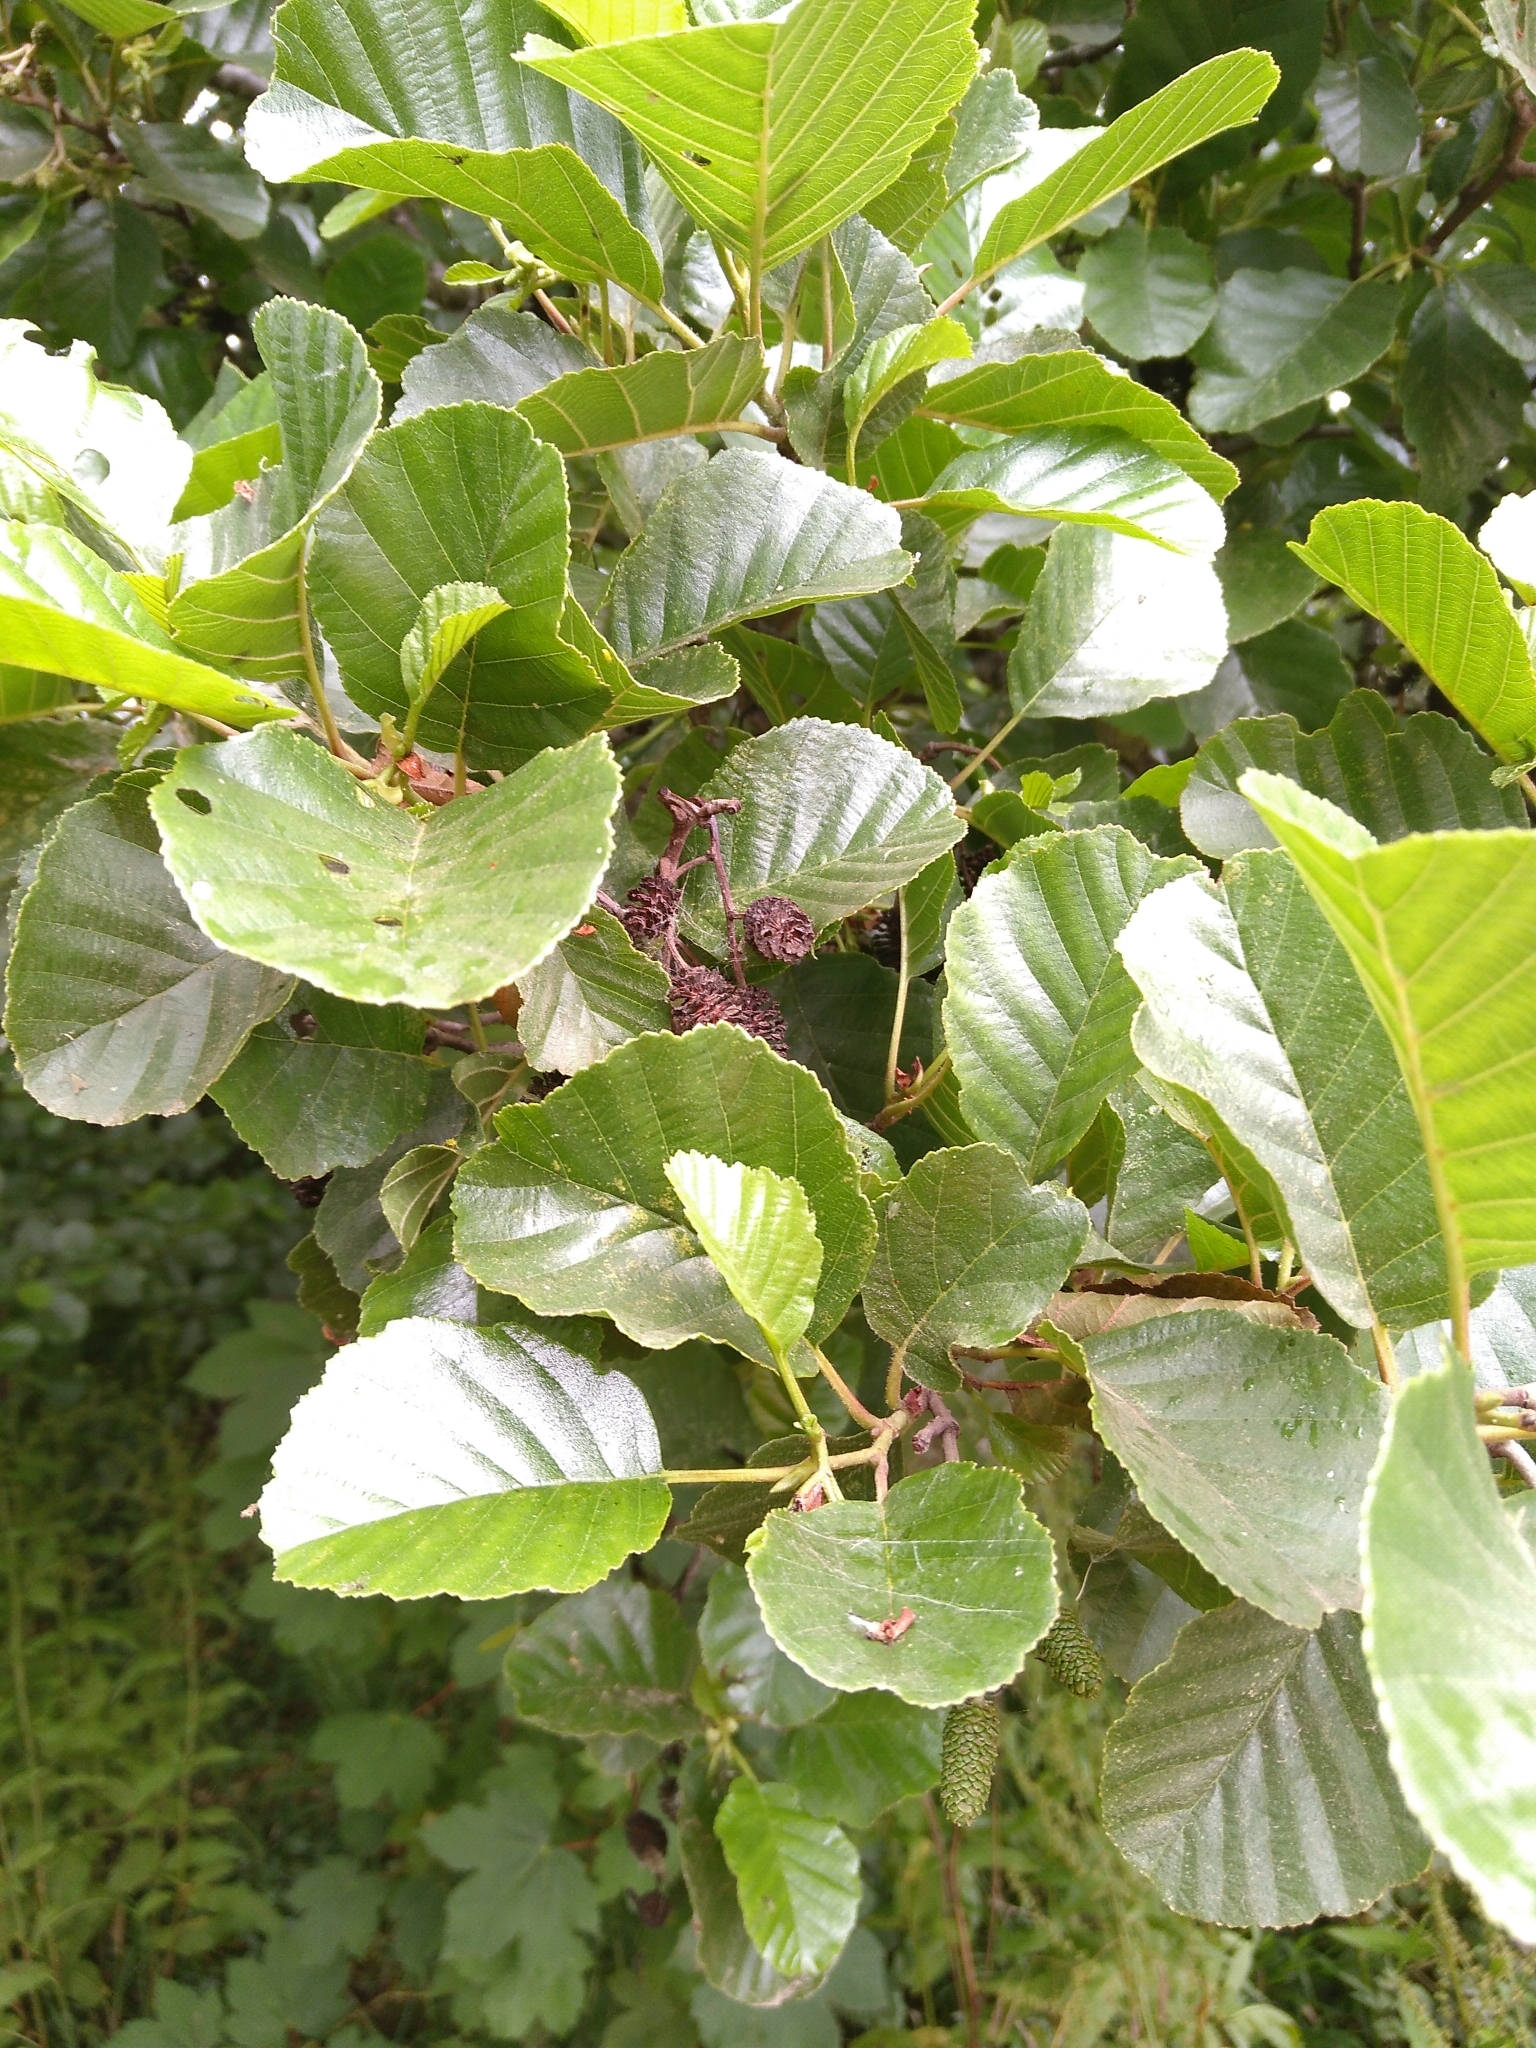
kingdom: Plantae
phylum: Tracheophyta
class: Magnoliopsida
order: Fagales
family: Betulaceae
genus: Alnus
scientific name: Alnus glutinosa
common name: Black alder
